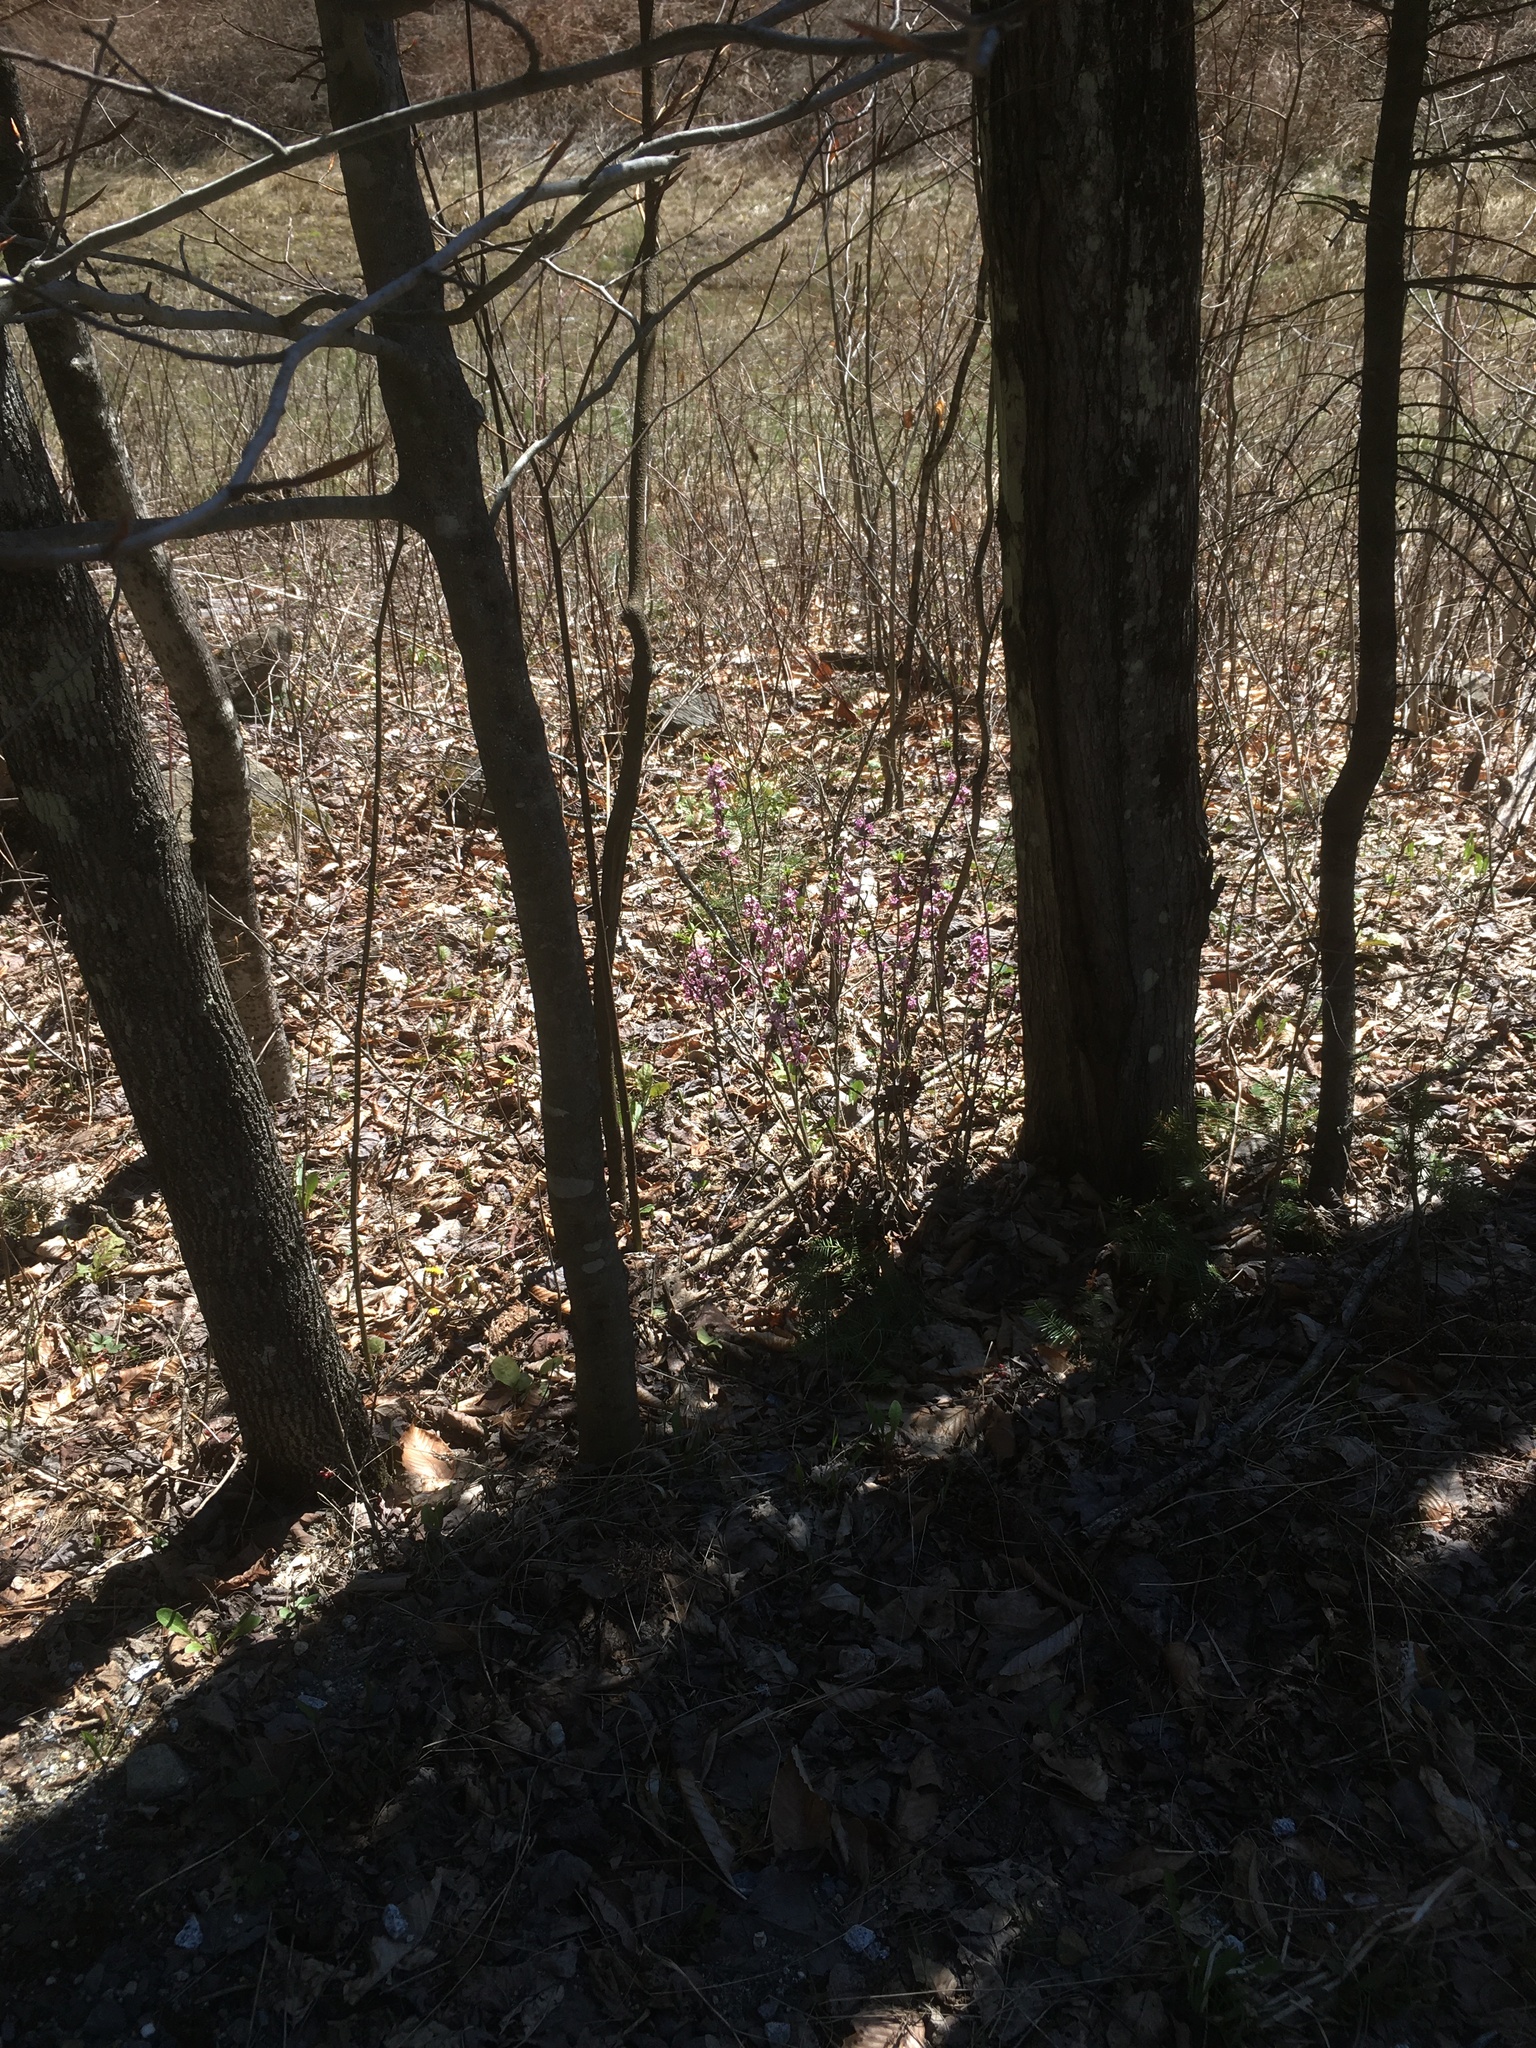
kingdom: Plantae
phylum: Tracheophyta
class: Magnoliopsida
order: Malvales
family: Thymelaeaceae
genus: Daphne
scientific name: Daphne mezereum
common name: Mezereon
